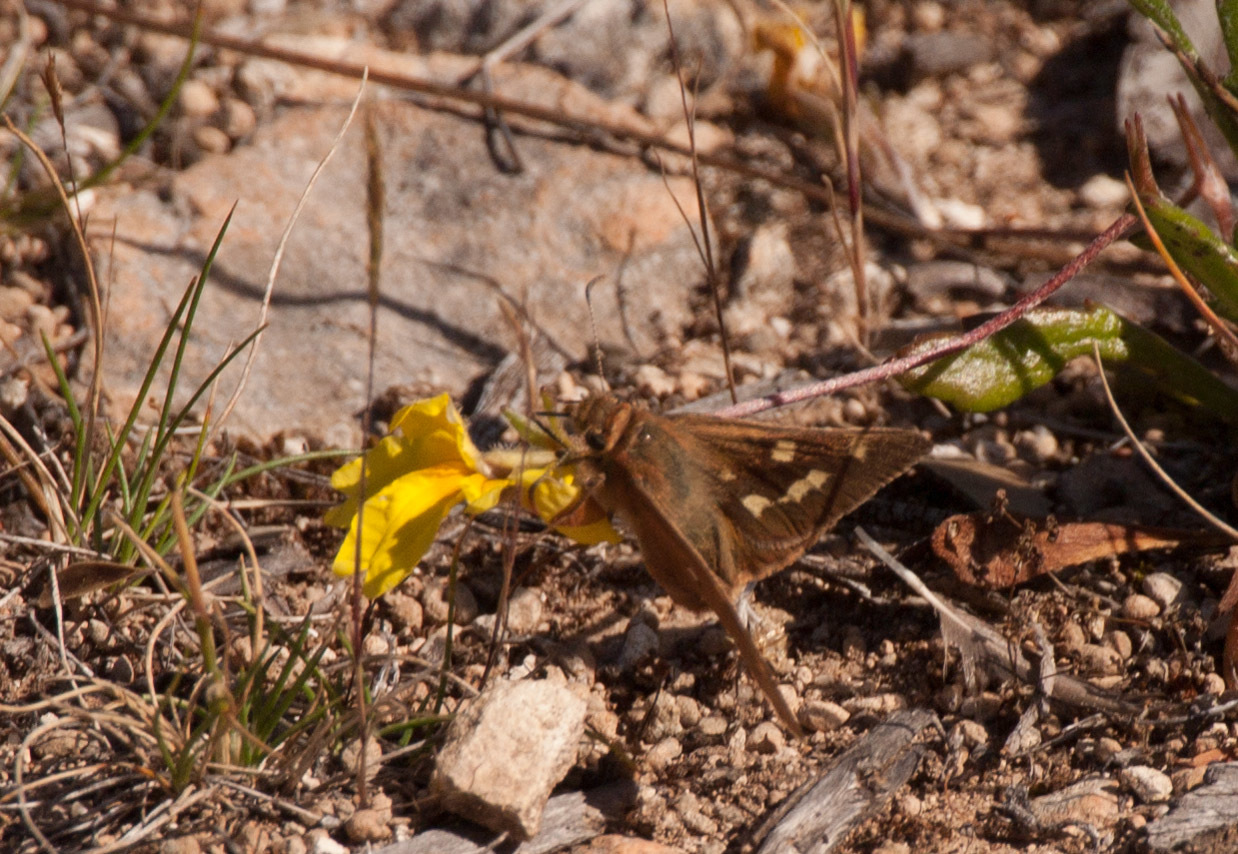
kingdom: Animalia
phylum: Arthropoda
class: Insecta
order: Lepidoptera
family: Hesperiidae
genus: Motasingha
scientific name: Motasingha trimaculata
